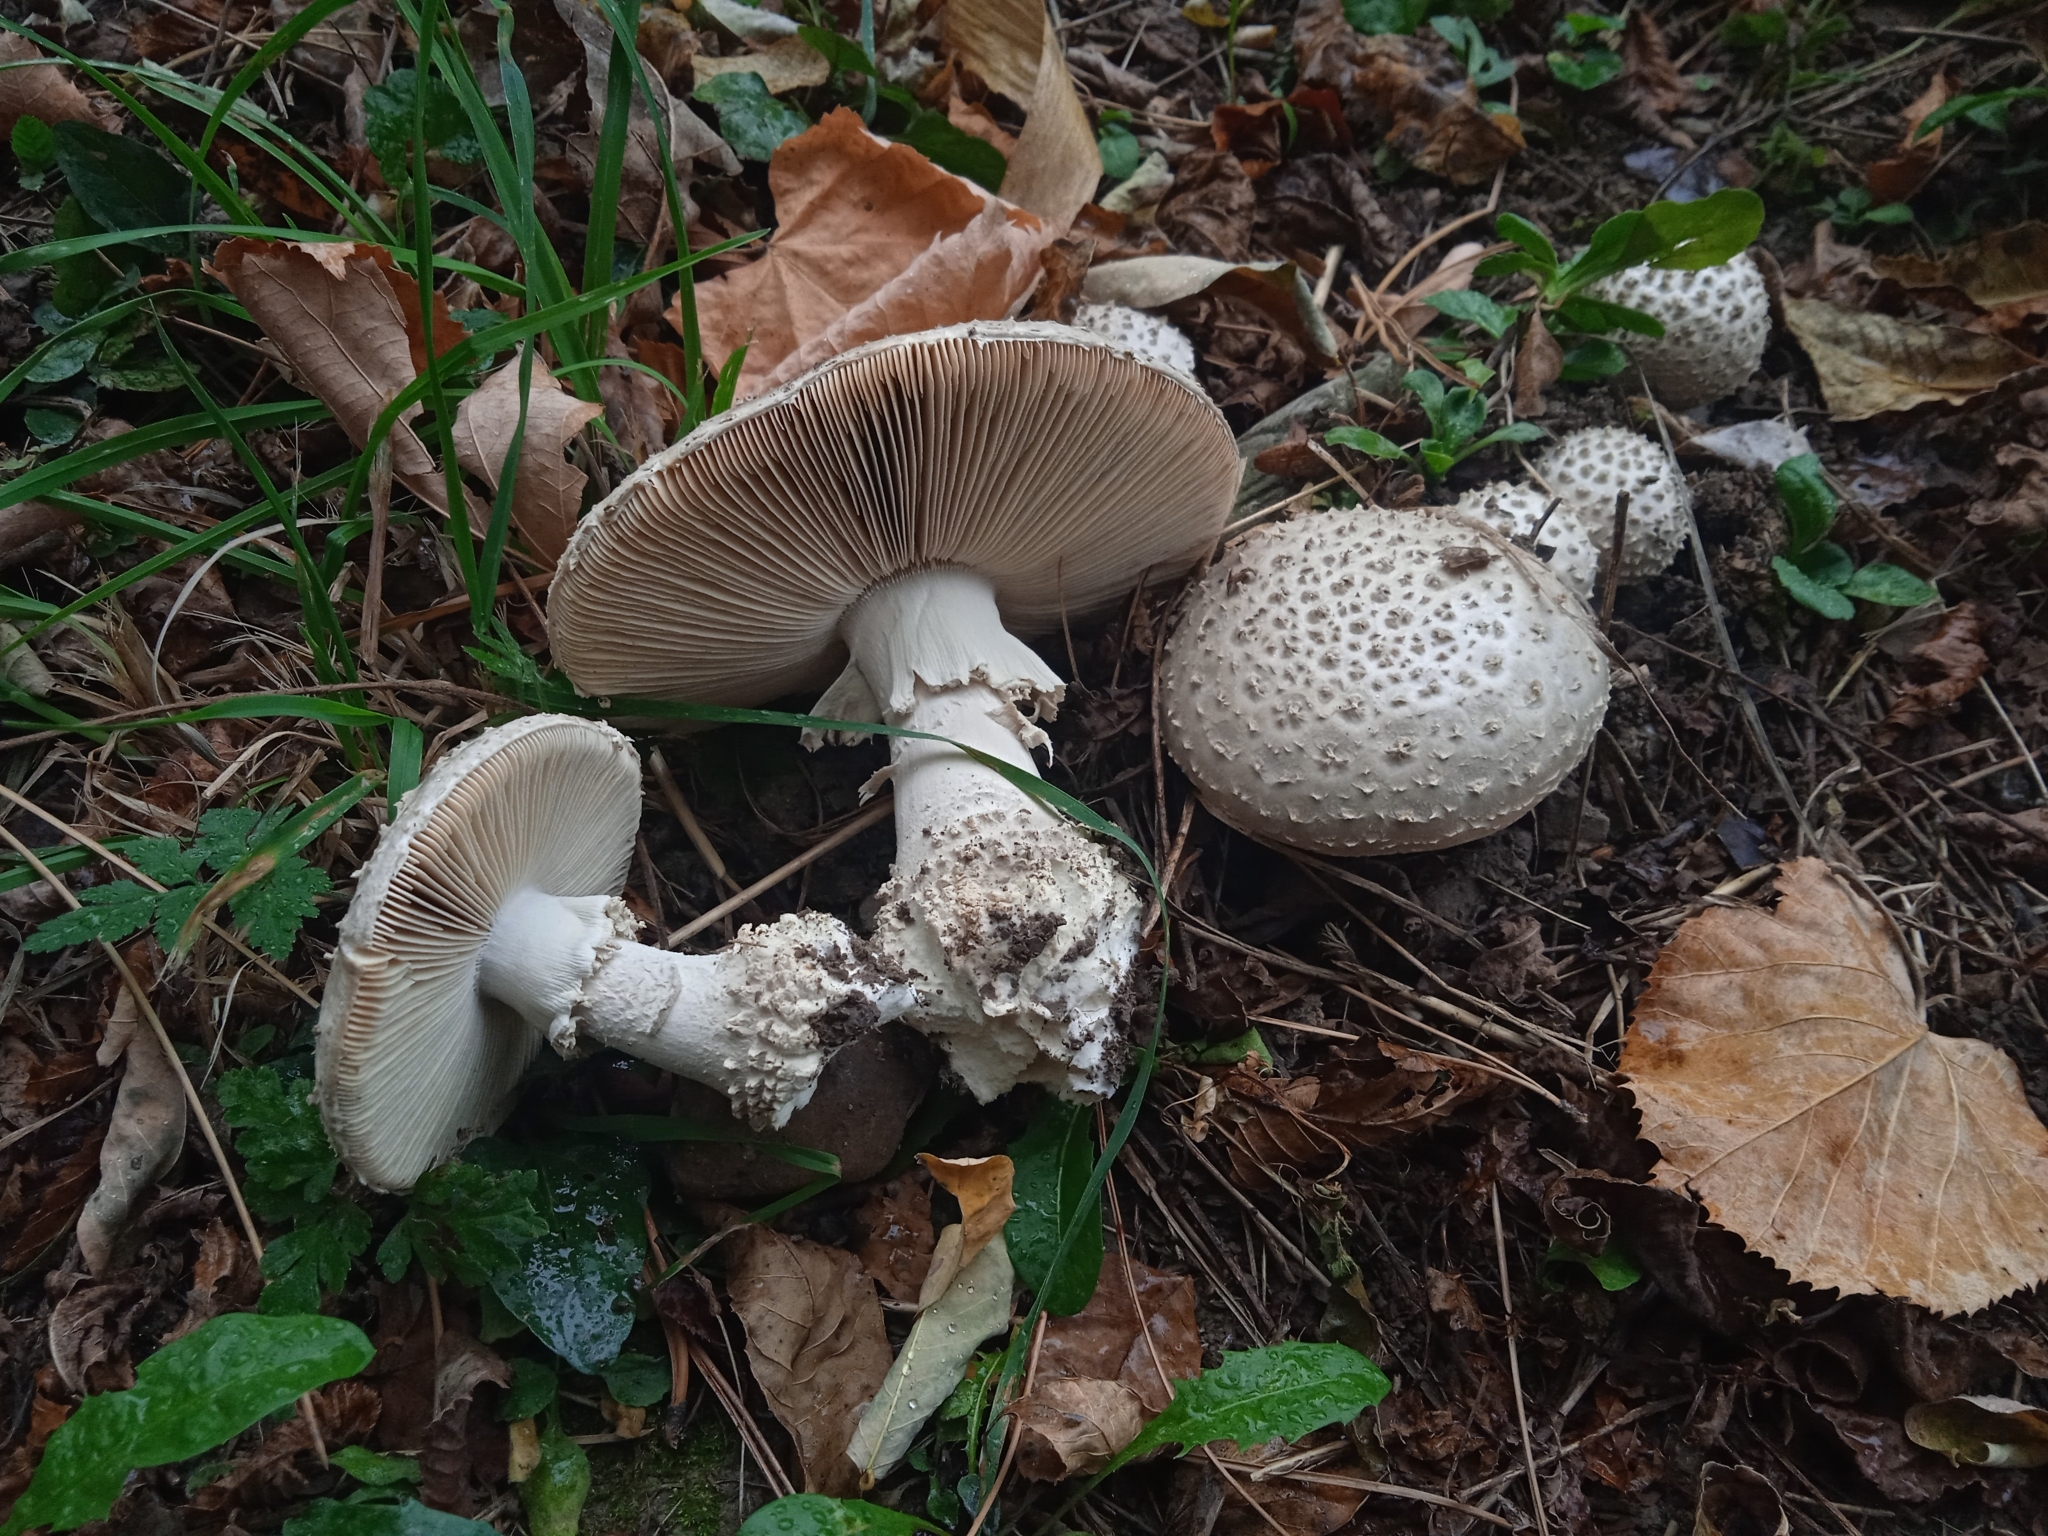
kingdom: Fungi
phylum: Basidiomycota
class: Agaricomycetes
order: Agaricales
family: Amanitaceae
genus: Amanita
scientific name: Amanita echinocephala
